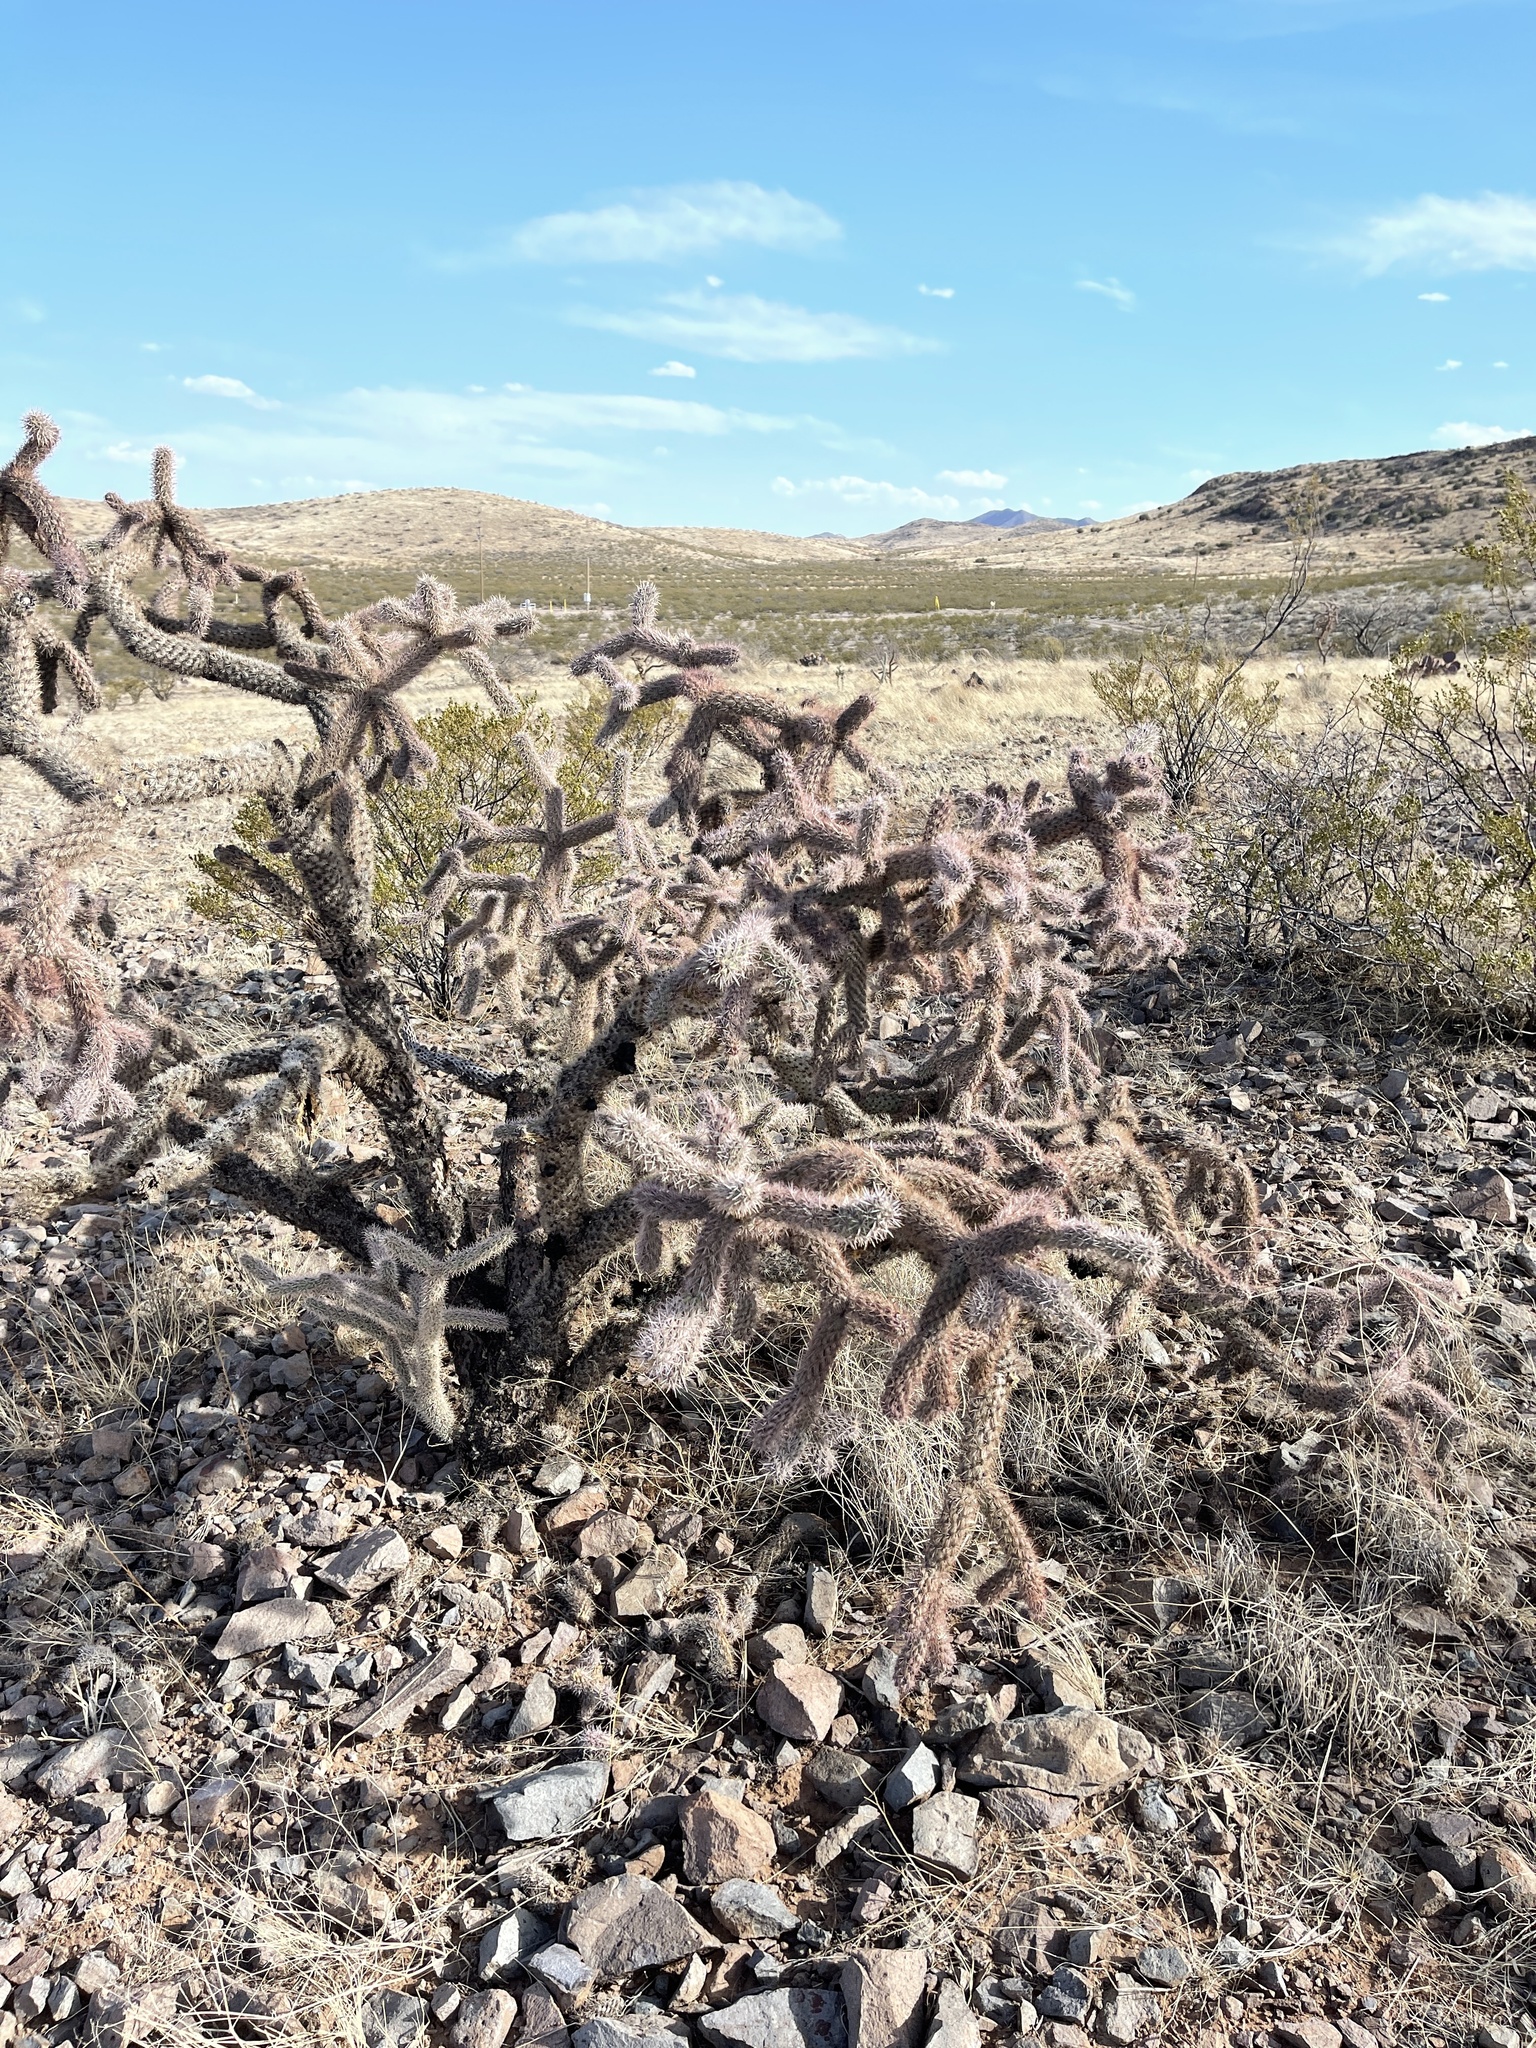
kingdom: Plantae
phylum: Tracheophyta
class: Magnoliopsida
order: Caryophyllales
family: Cactaceae
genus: Cylindropuntia
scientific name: Cylindropuntia imbricata
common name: Candelabrum cactus
